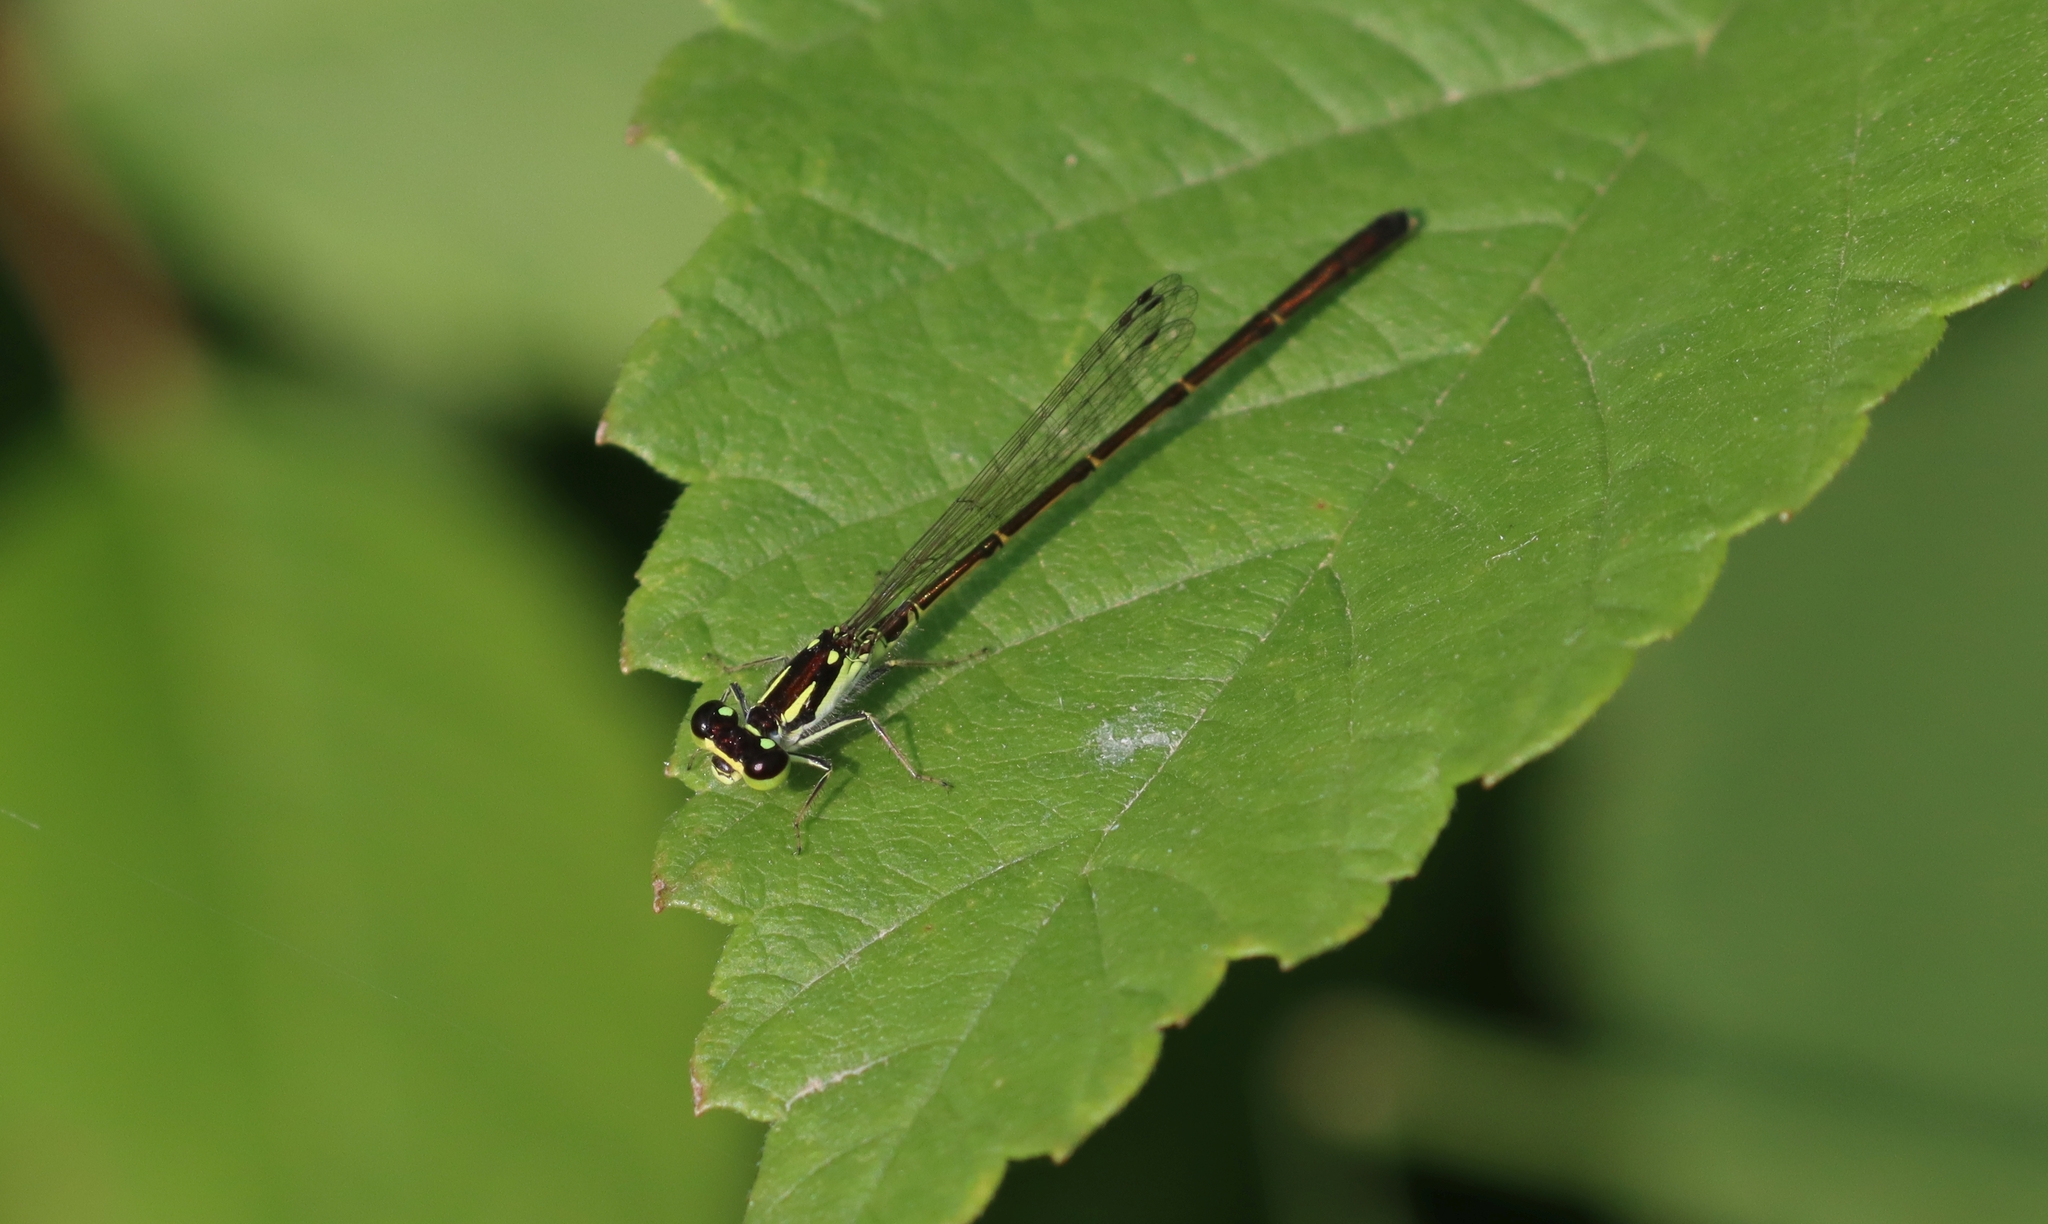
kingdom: Animalia
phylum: Arthropoda
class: Insecta
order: Odonata
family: Coenagrionidae
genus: Ischnura
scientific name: Ischnura posita
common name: Fragile forktail
